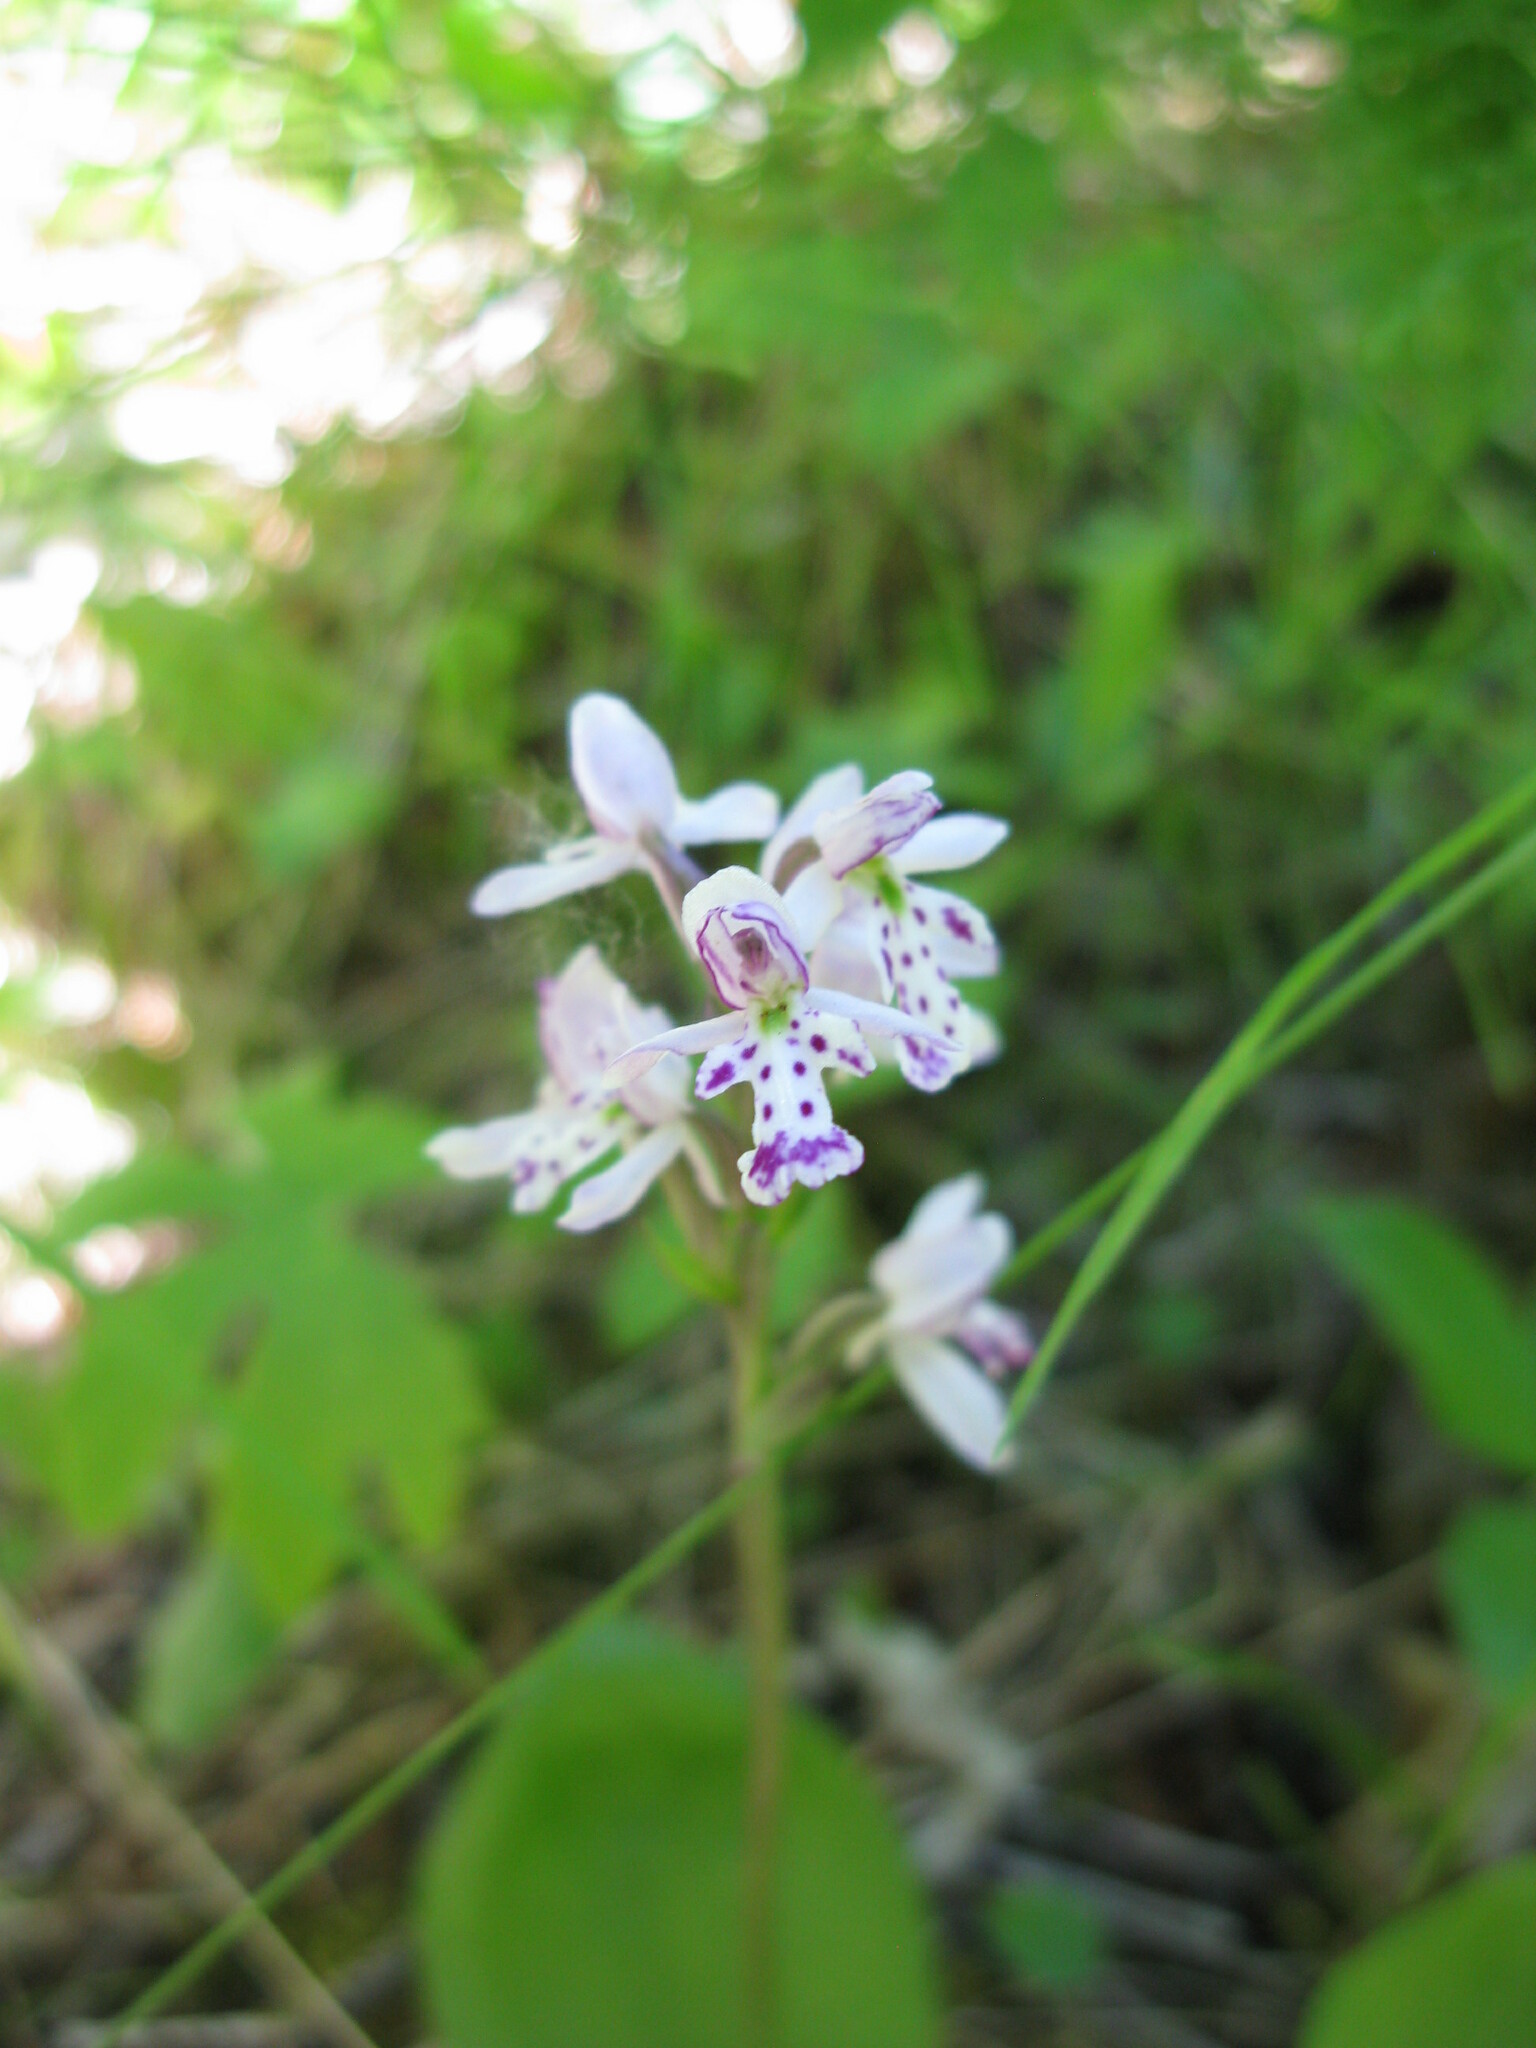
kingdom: Plantae
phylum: Tracheophyta
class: Liliopsida
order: Asparagales
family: Orchidaceae
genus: Galearis
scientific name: Galearis rotundifolia
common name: One-leaved orchis
